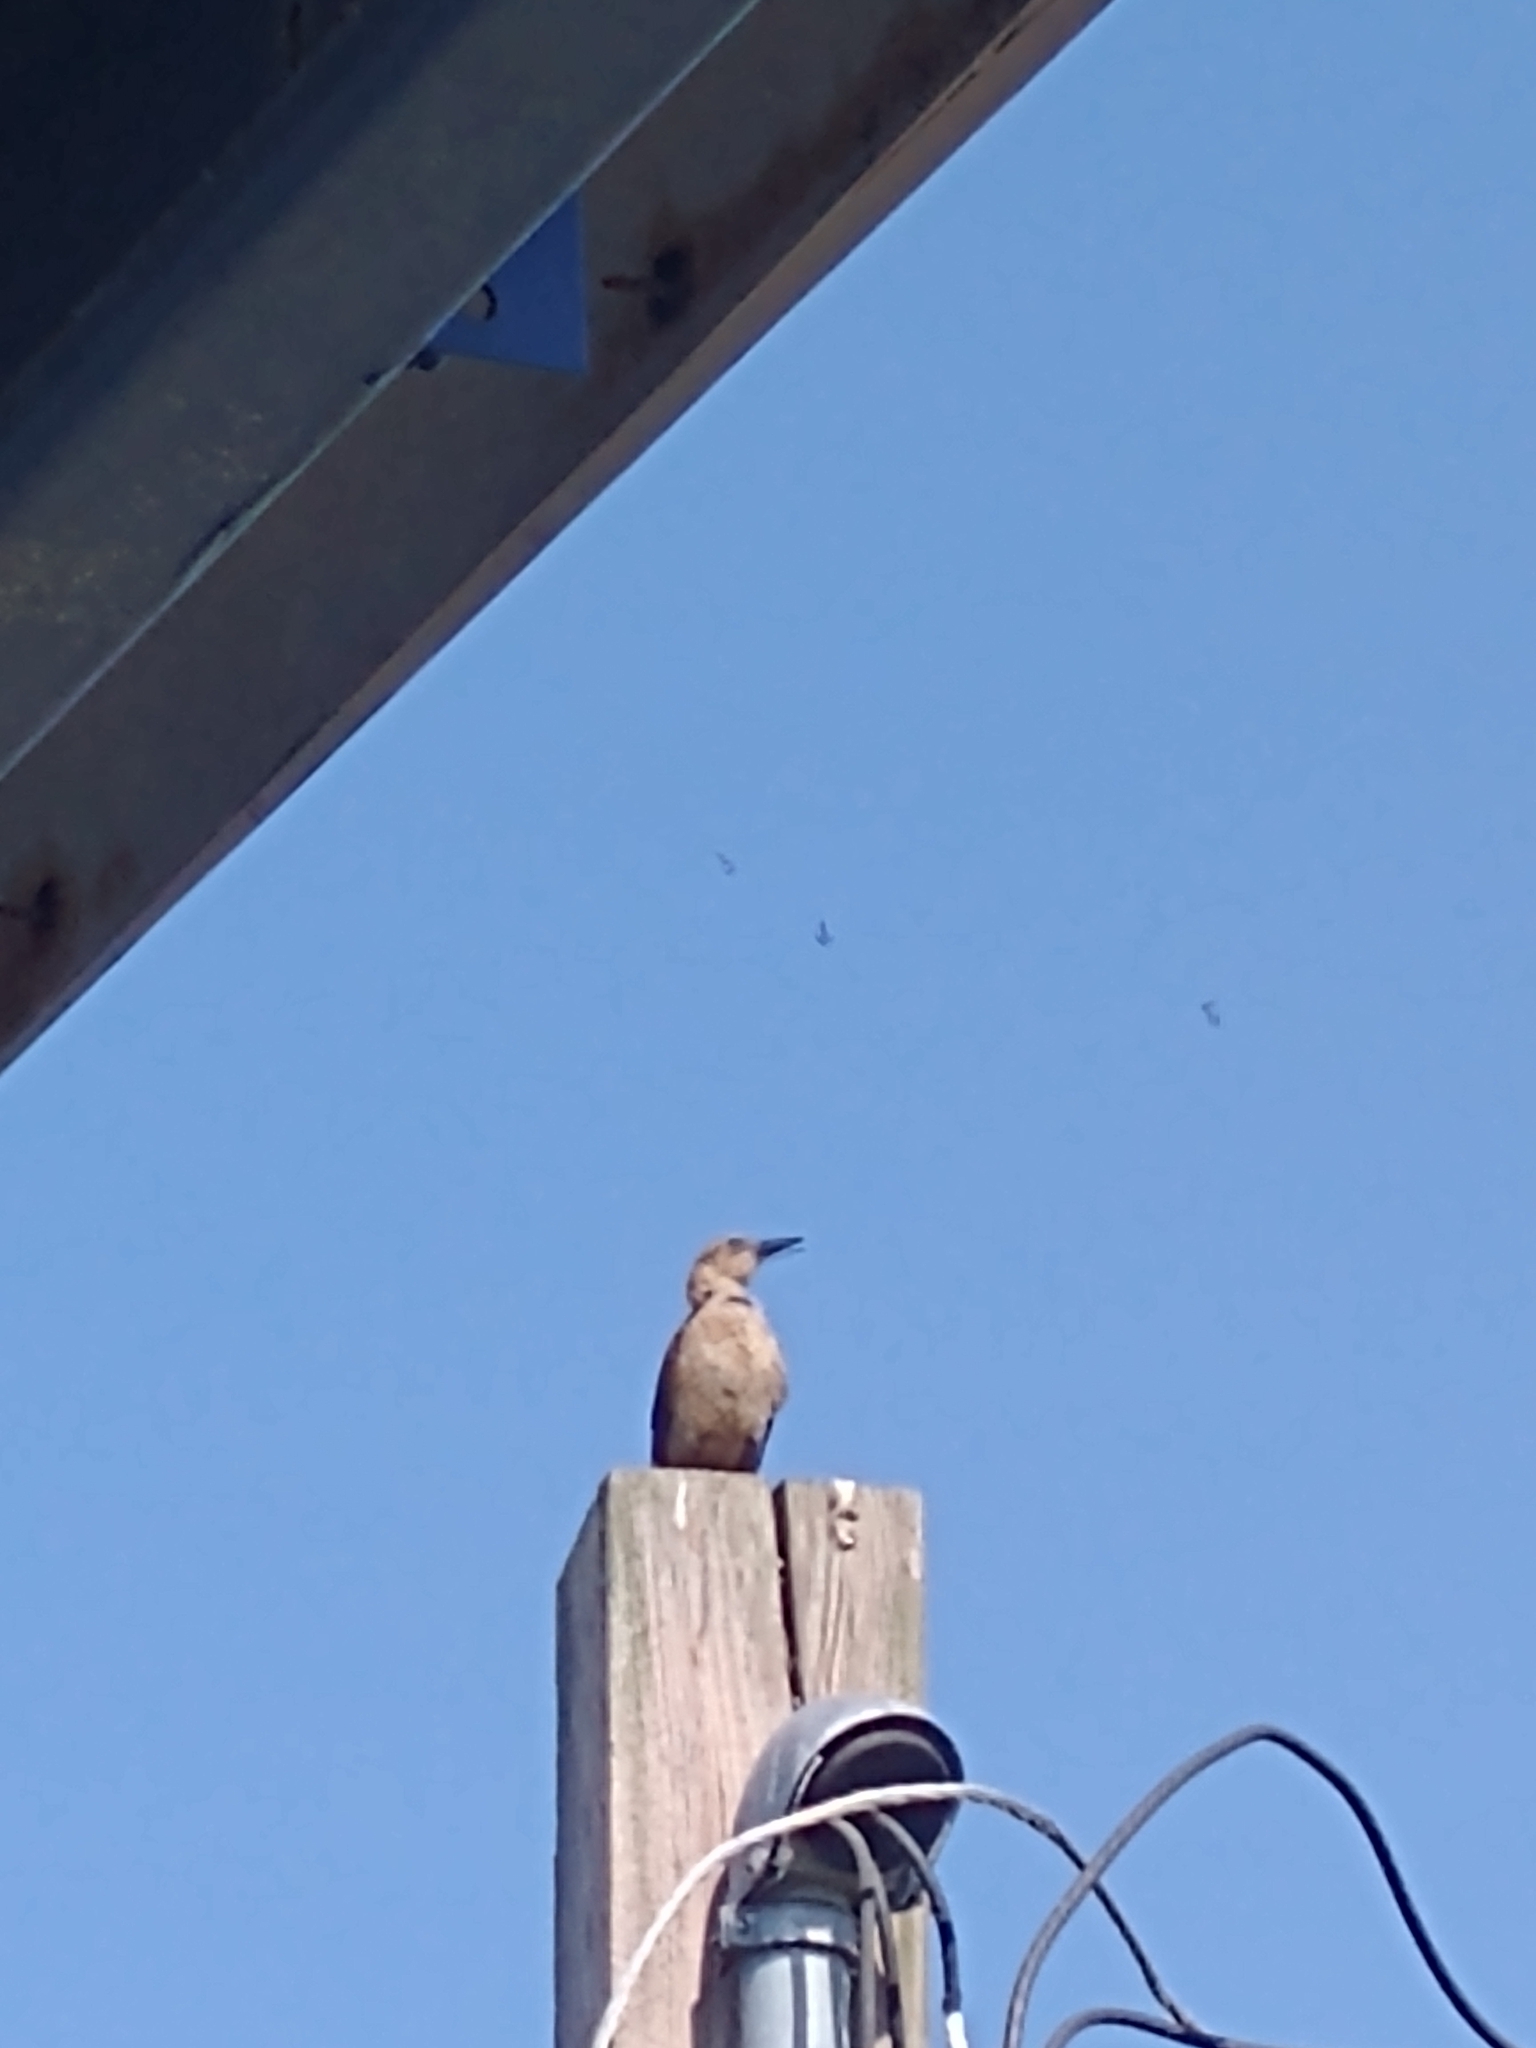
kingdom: Animalia
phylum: Chordata
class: Aves
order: Passeriformes
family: Icteridae
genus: Quiscalus
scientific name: Quiscalus major
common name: Boat-tailed grackle
